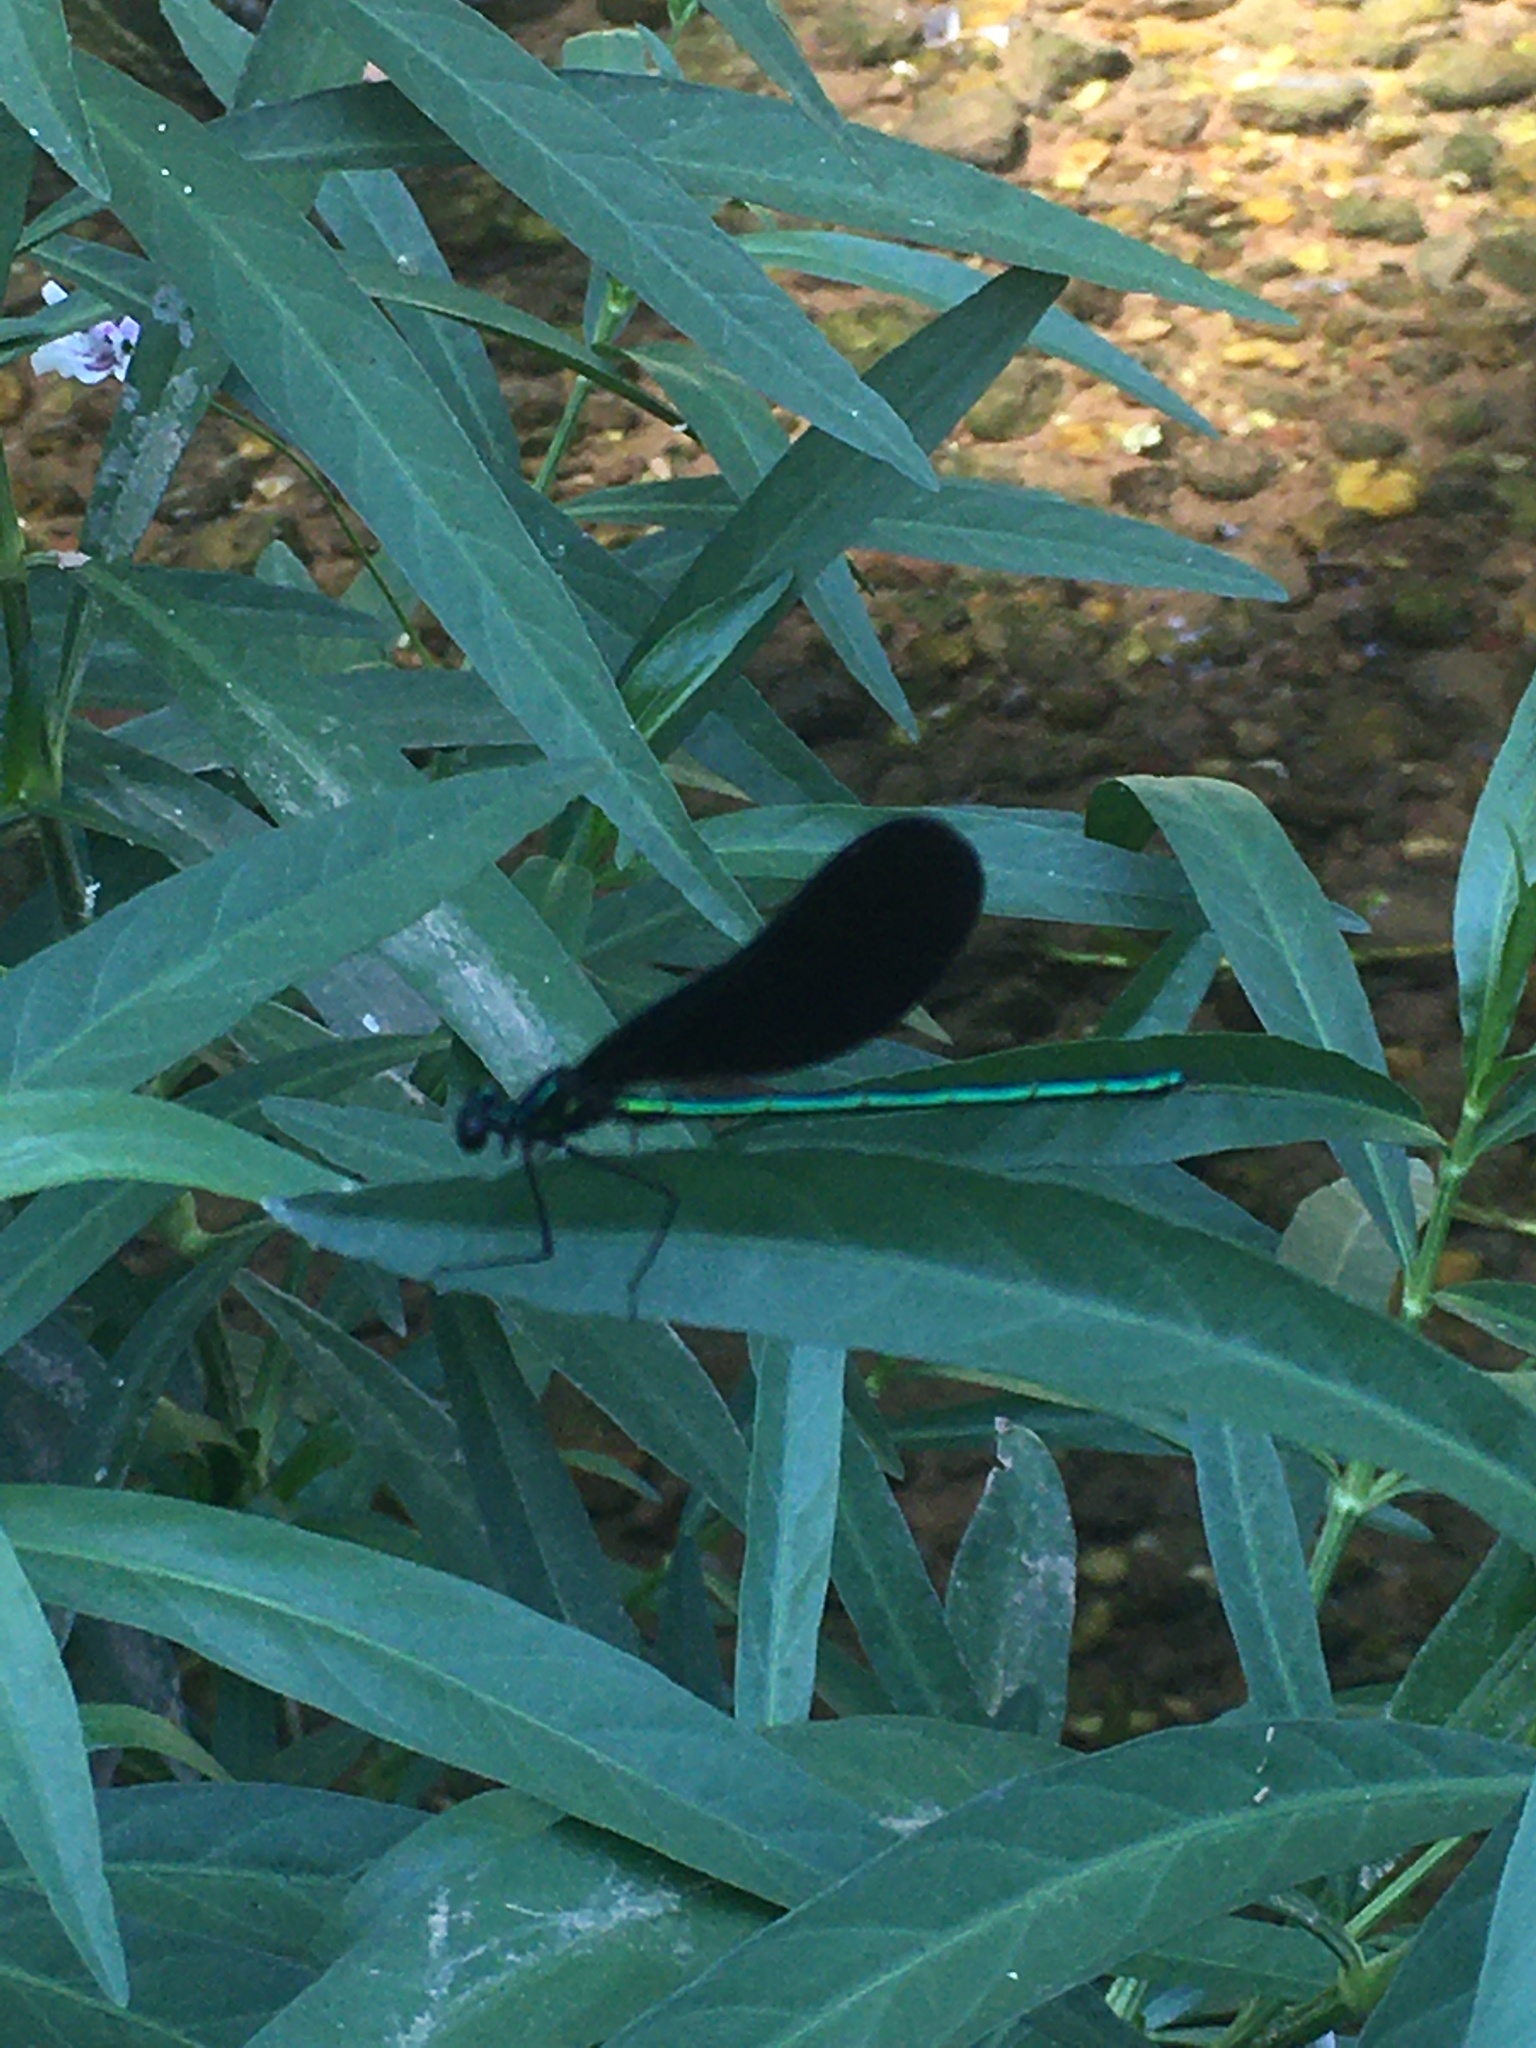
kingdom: Animalia
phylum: Arthropoda
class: Insecta
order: Odonata
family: Calopterygidae
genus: Calopteryx
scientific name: Calopteryx maculata
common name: Ebony jewelwing
